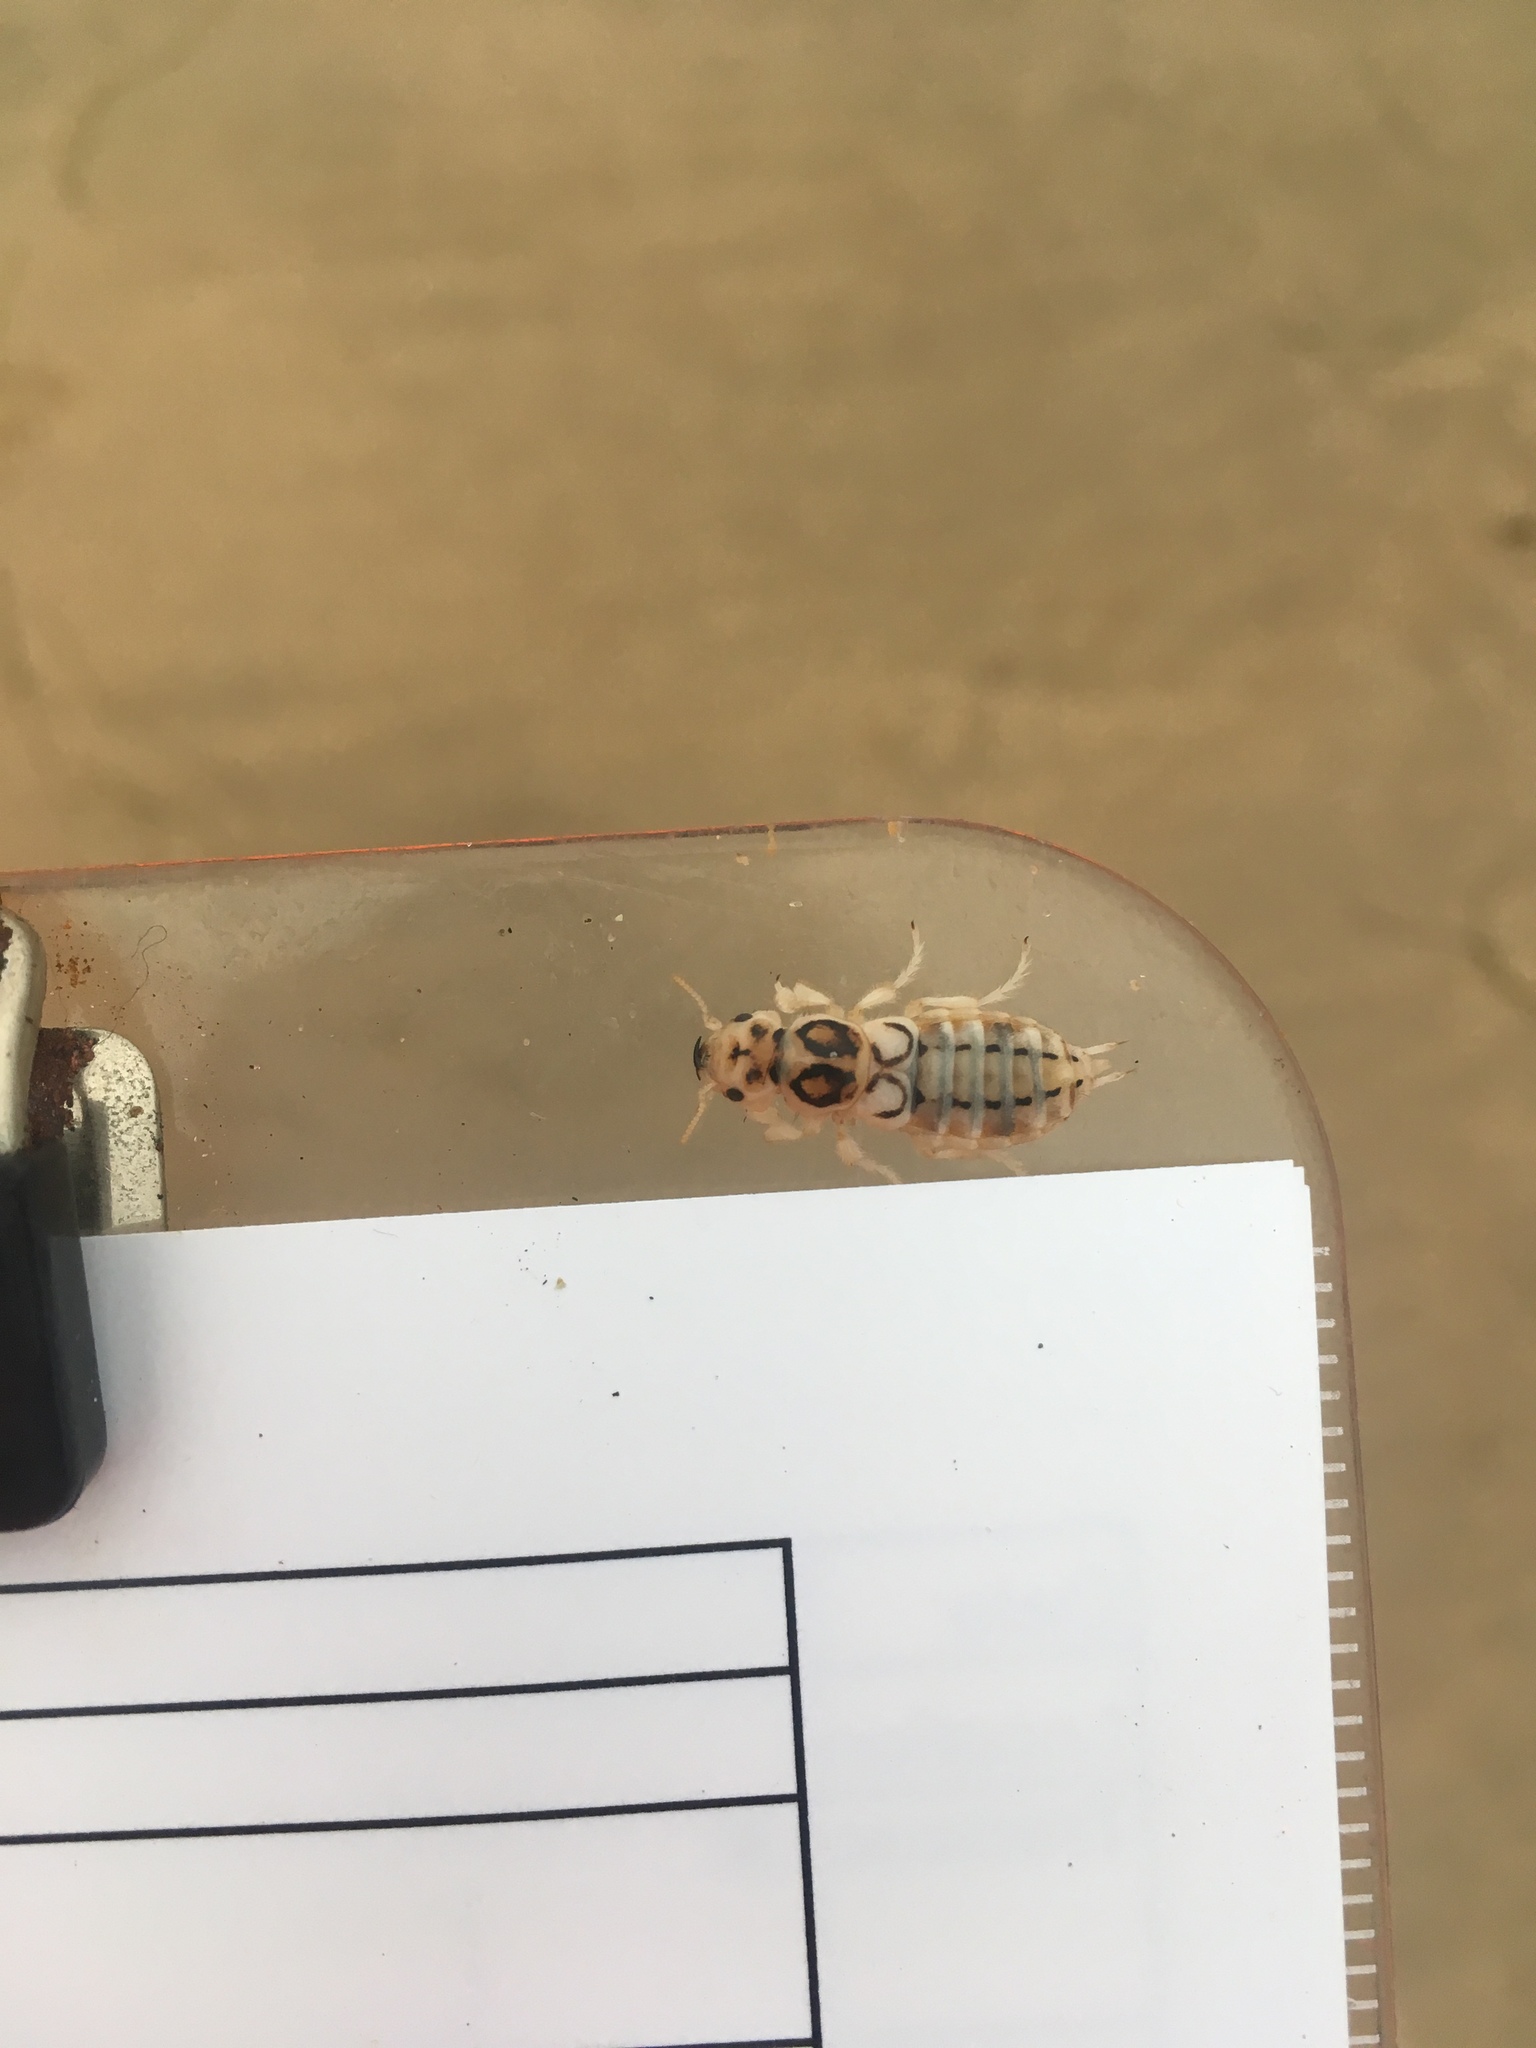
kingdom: Animalia
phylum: Arthropoda
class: Insecta
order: Coleoptera
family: Staphylinidae
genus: Thinopinus
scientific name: Thinopinus pictus
